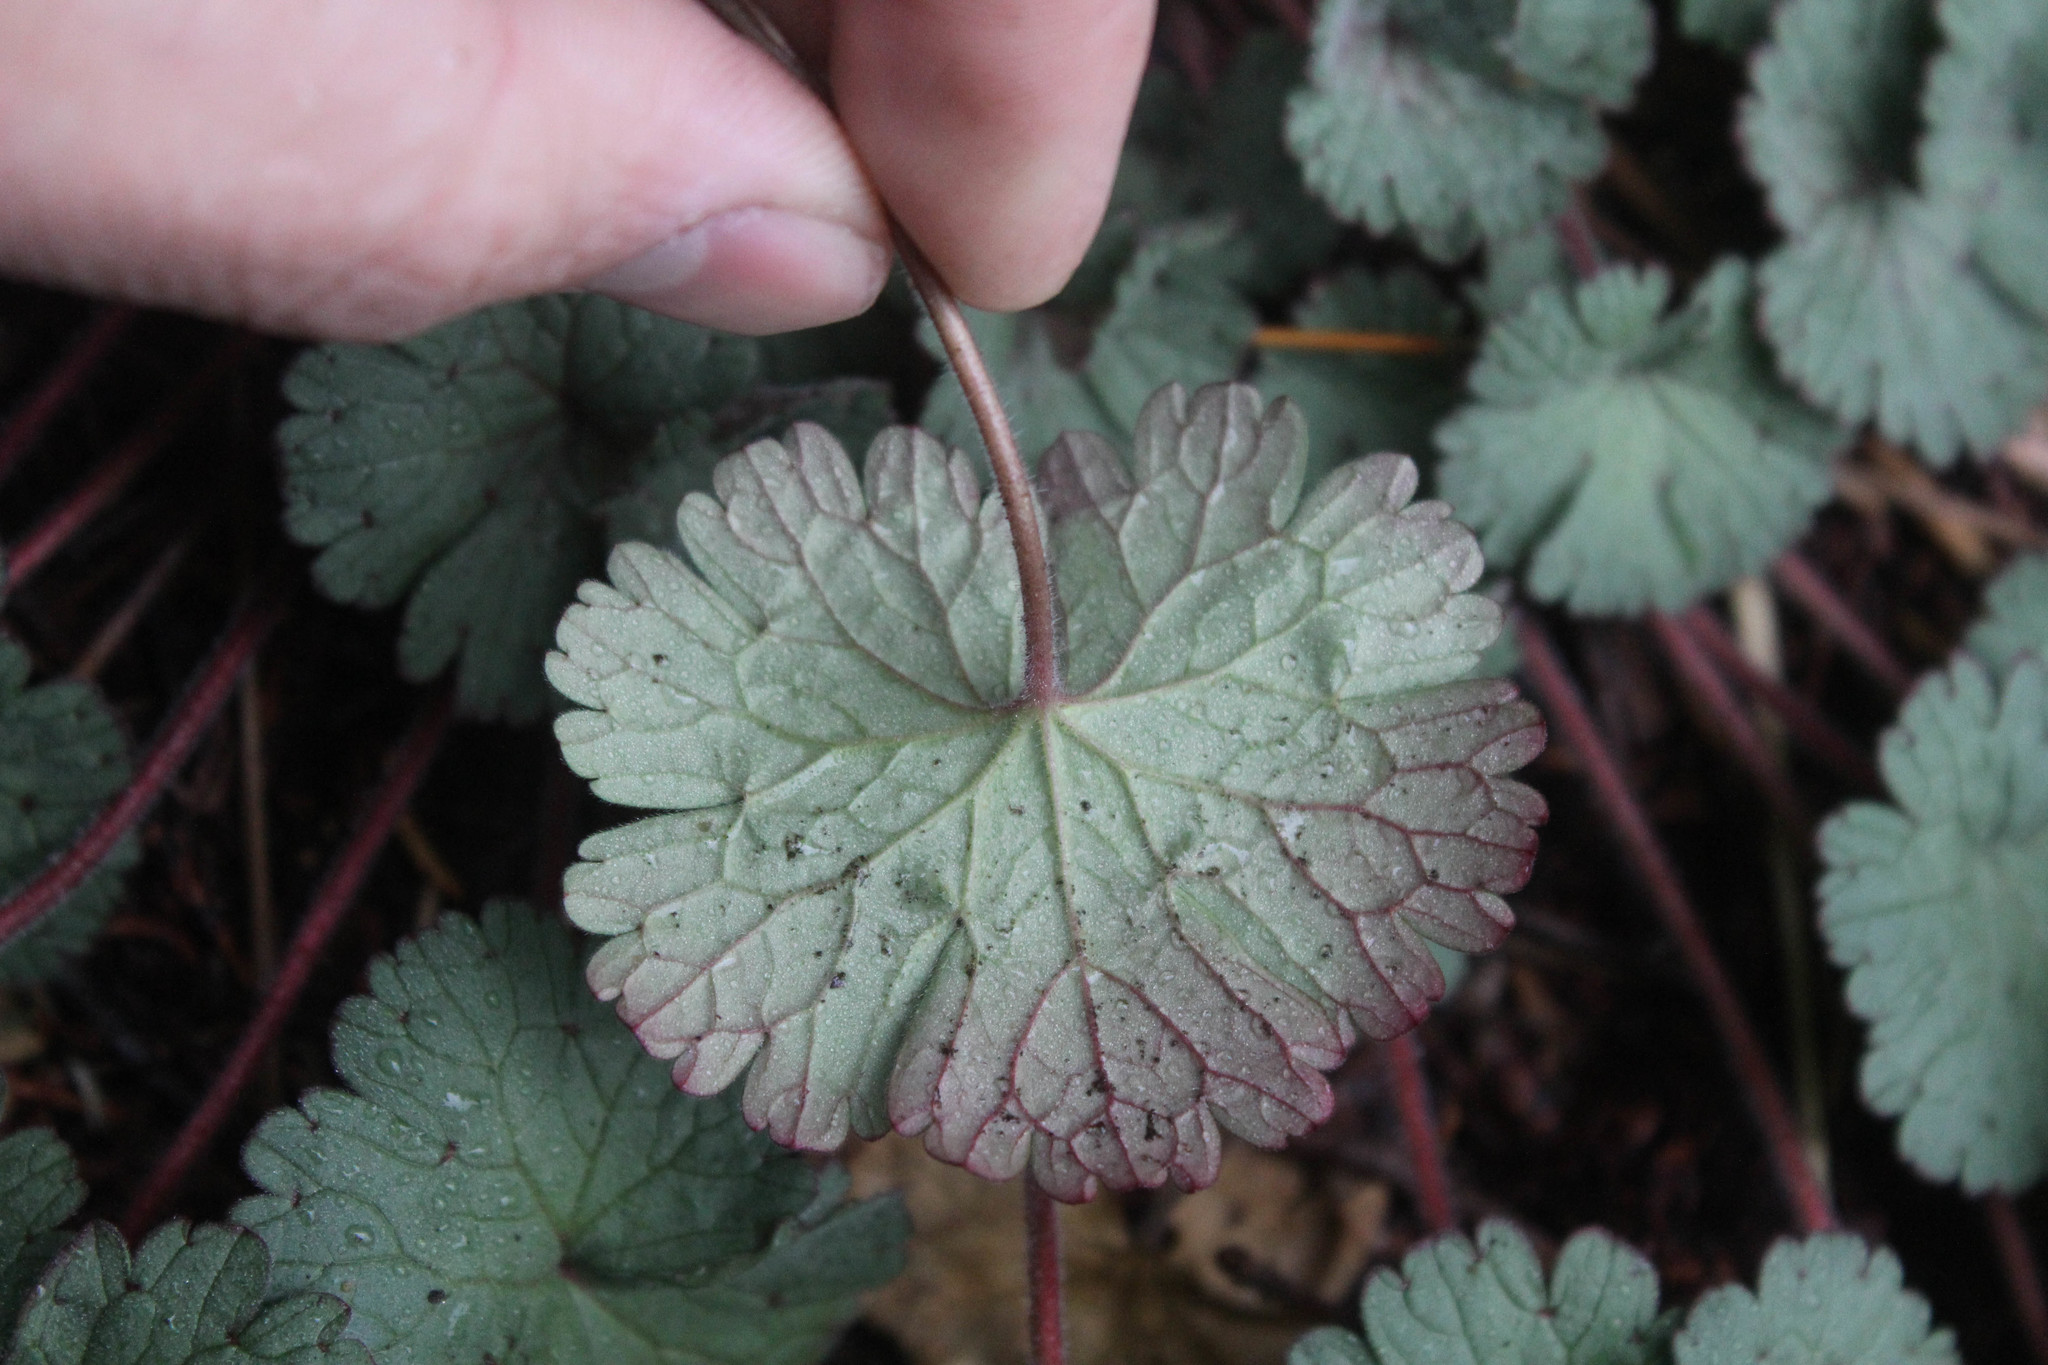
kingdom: Plantae
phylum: Tracheophyta
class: Magnoliopsida
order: Geraniales
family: Geraniaceae
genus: Geranium
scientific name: Geranium
